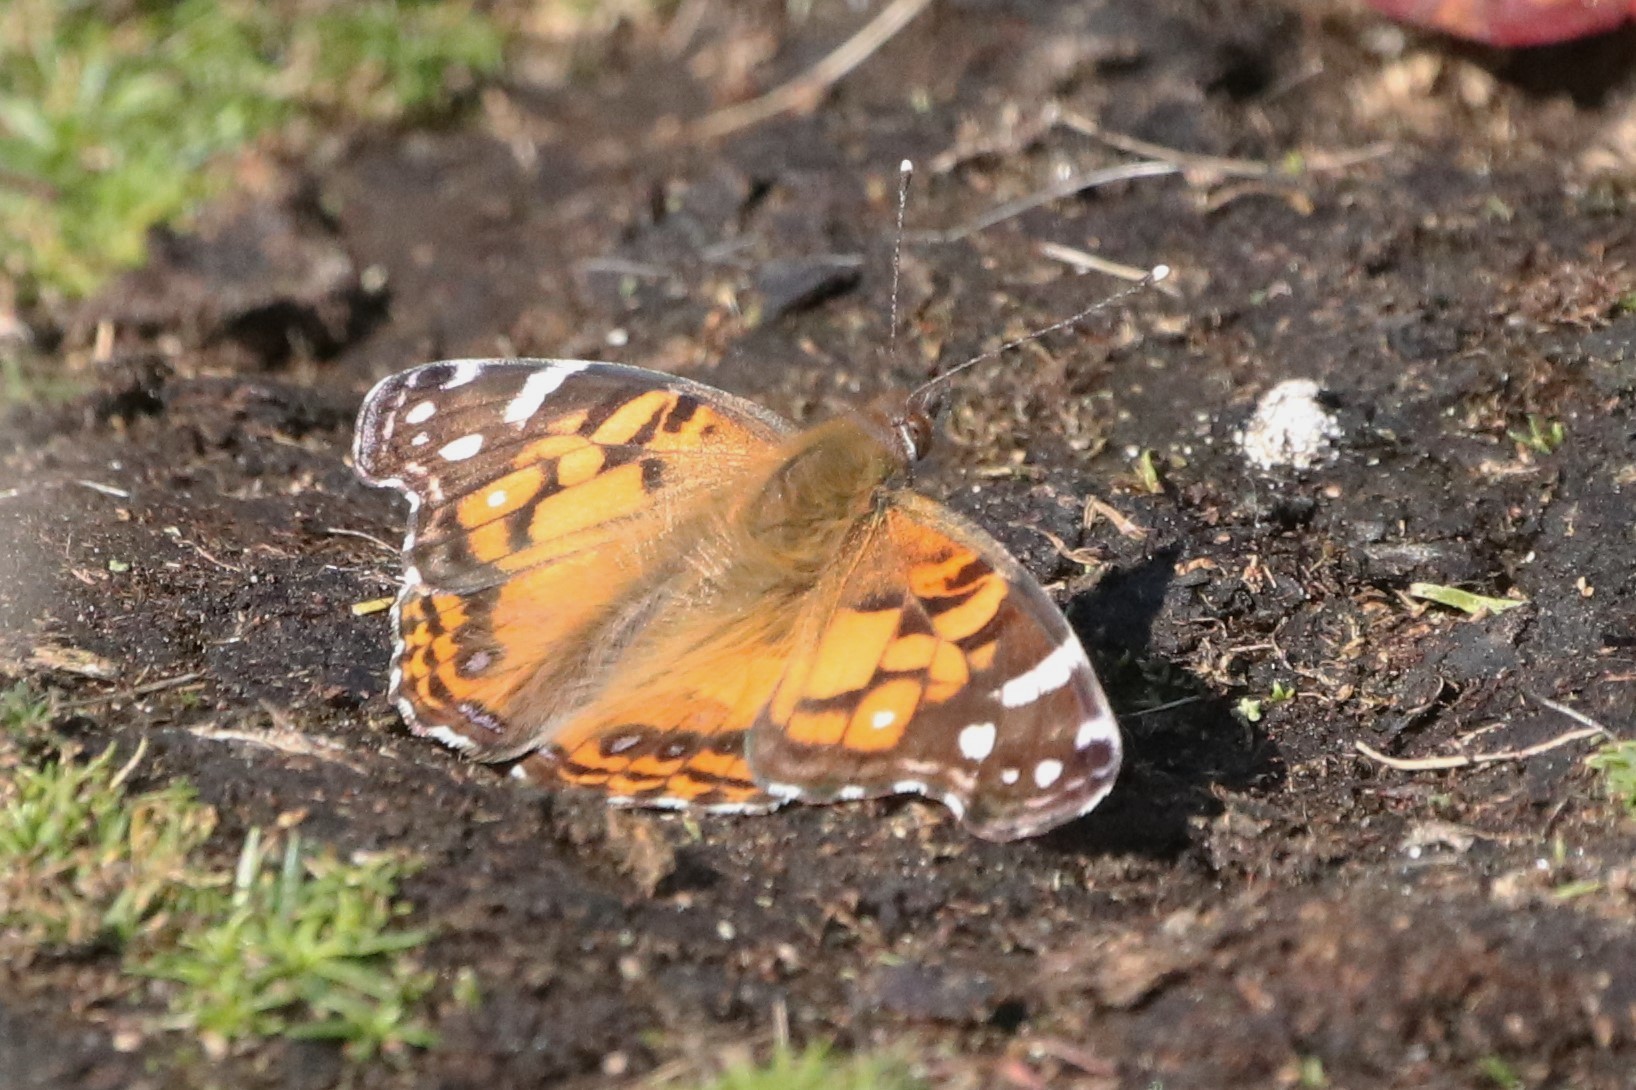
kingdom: Animalia
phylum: Arthropoda
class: Insecta
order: Lepidoptera
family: Nymphalidae
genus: Vanessa
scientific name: Vanessa virginiensis
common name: American lady
